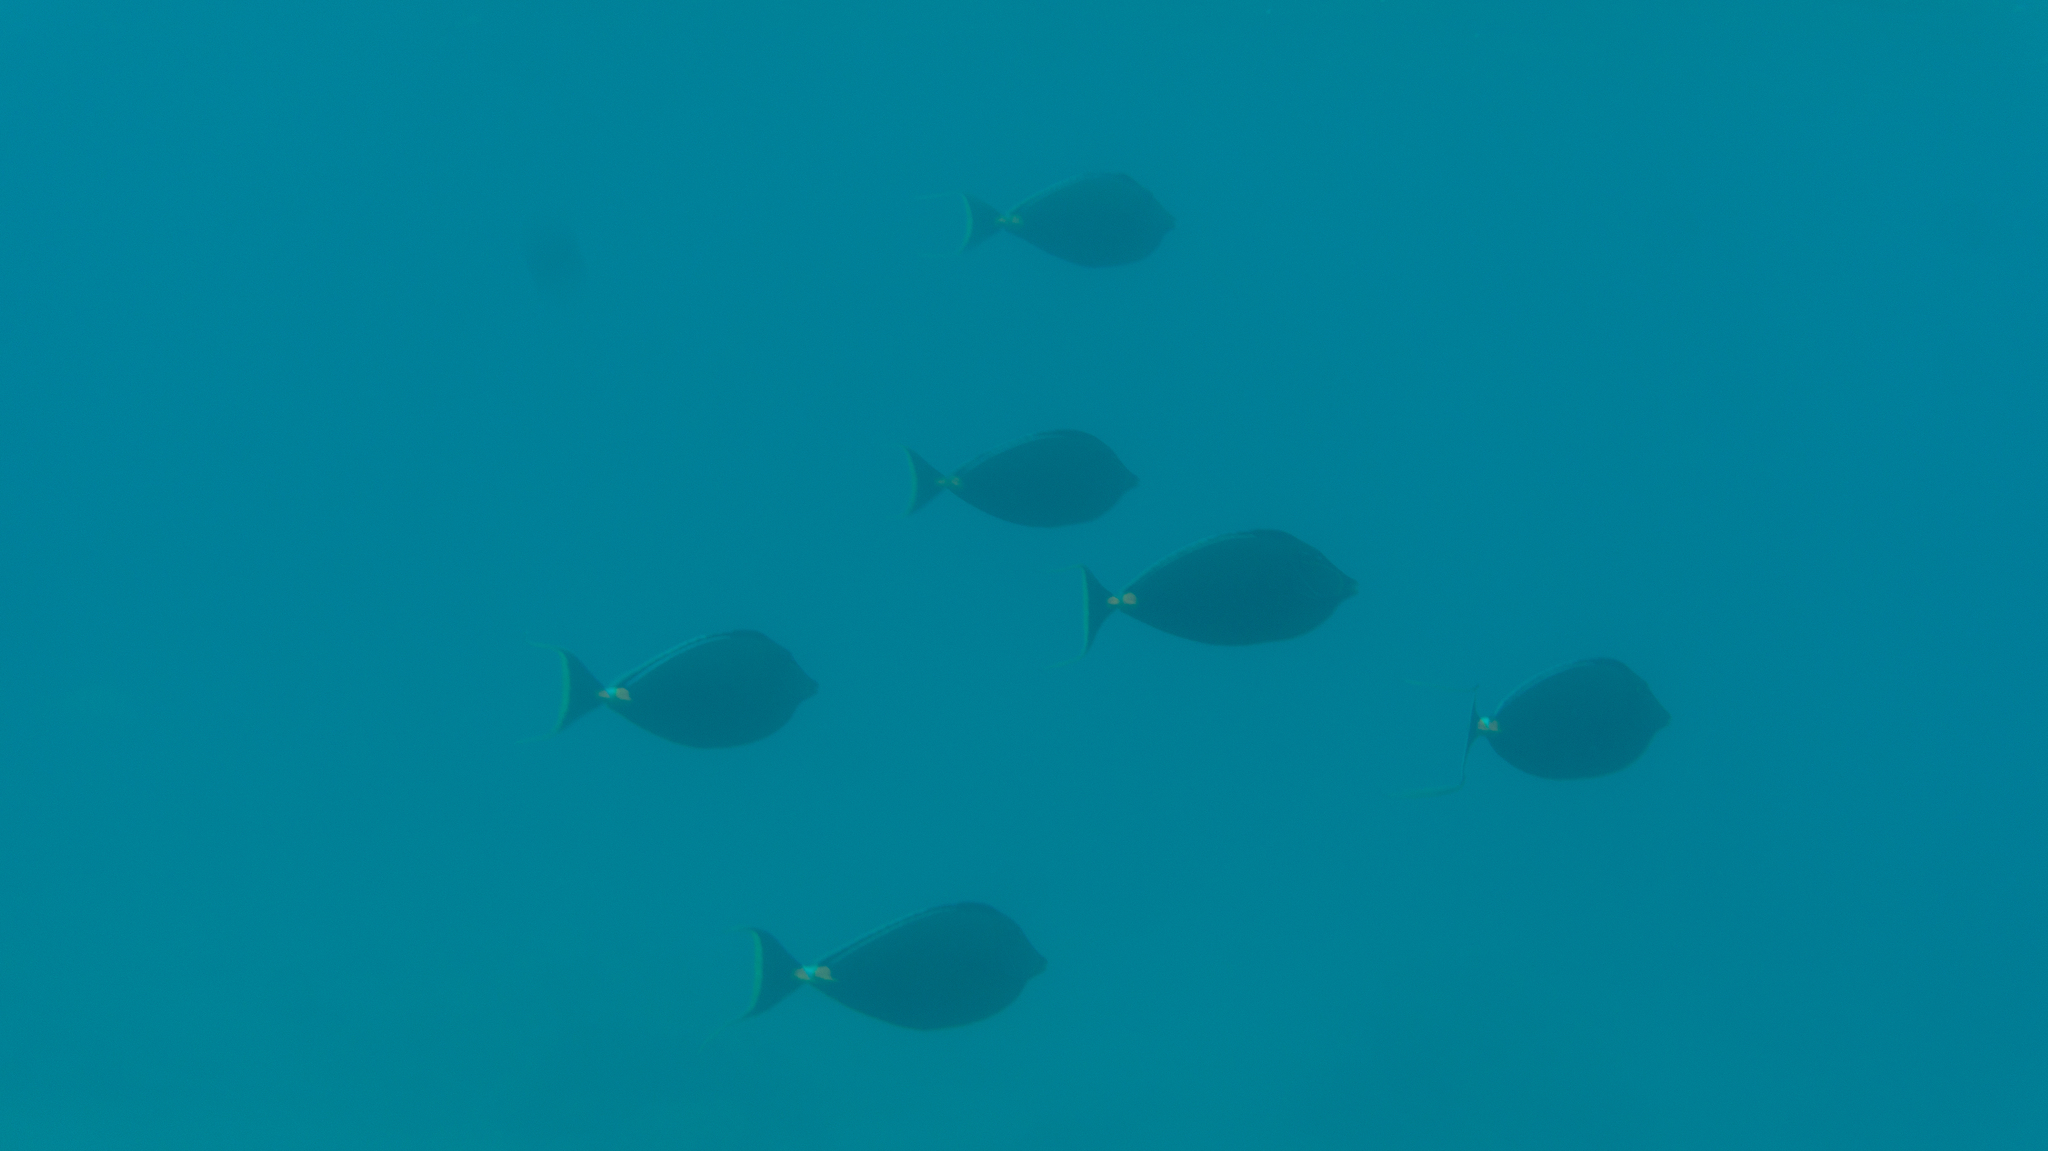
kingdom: Animalia
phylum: Chordata
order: Perciformes
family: Acanthuridae
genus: Naso
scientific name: Naso lituratus
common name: Orangespine unicornfish
